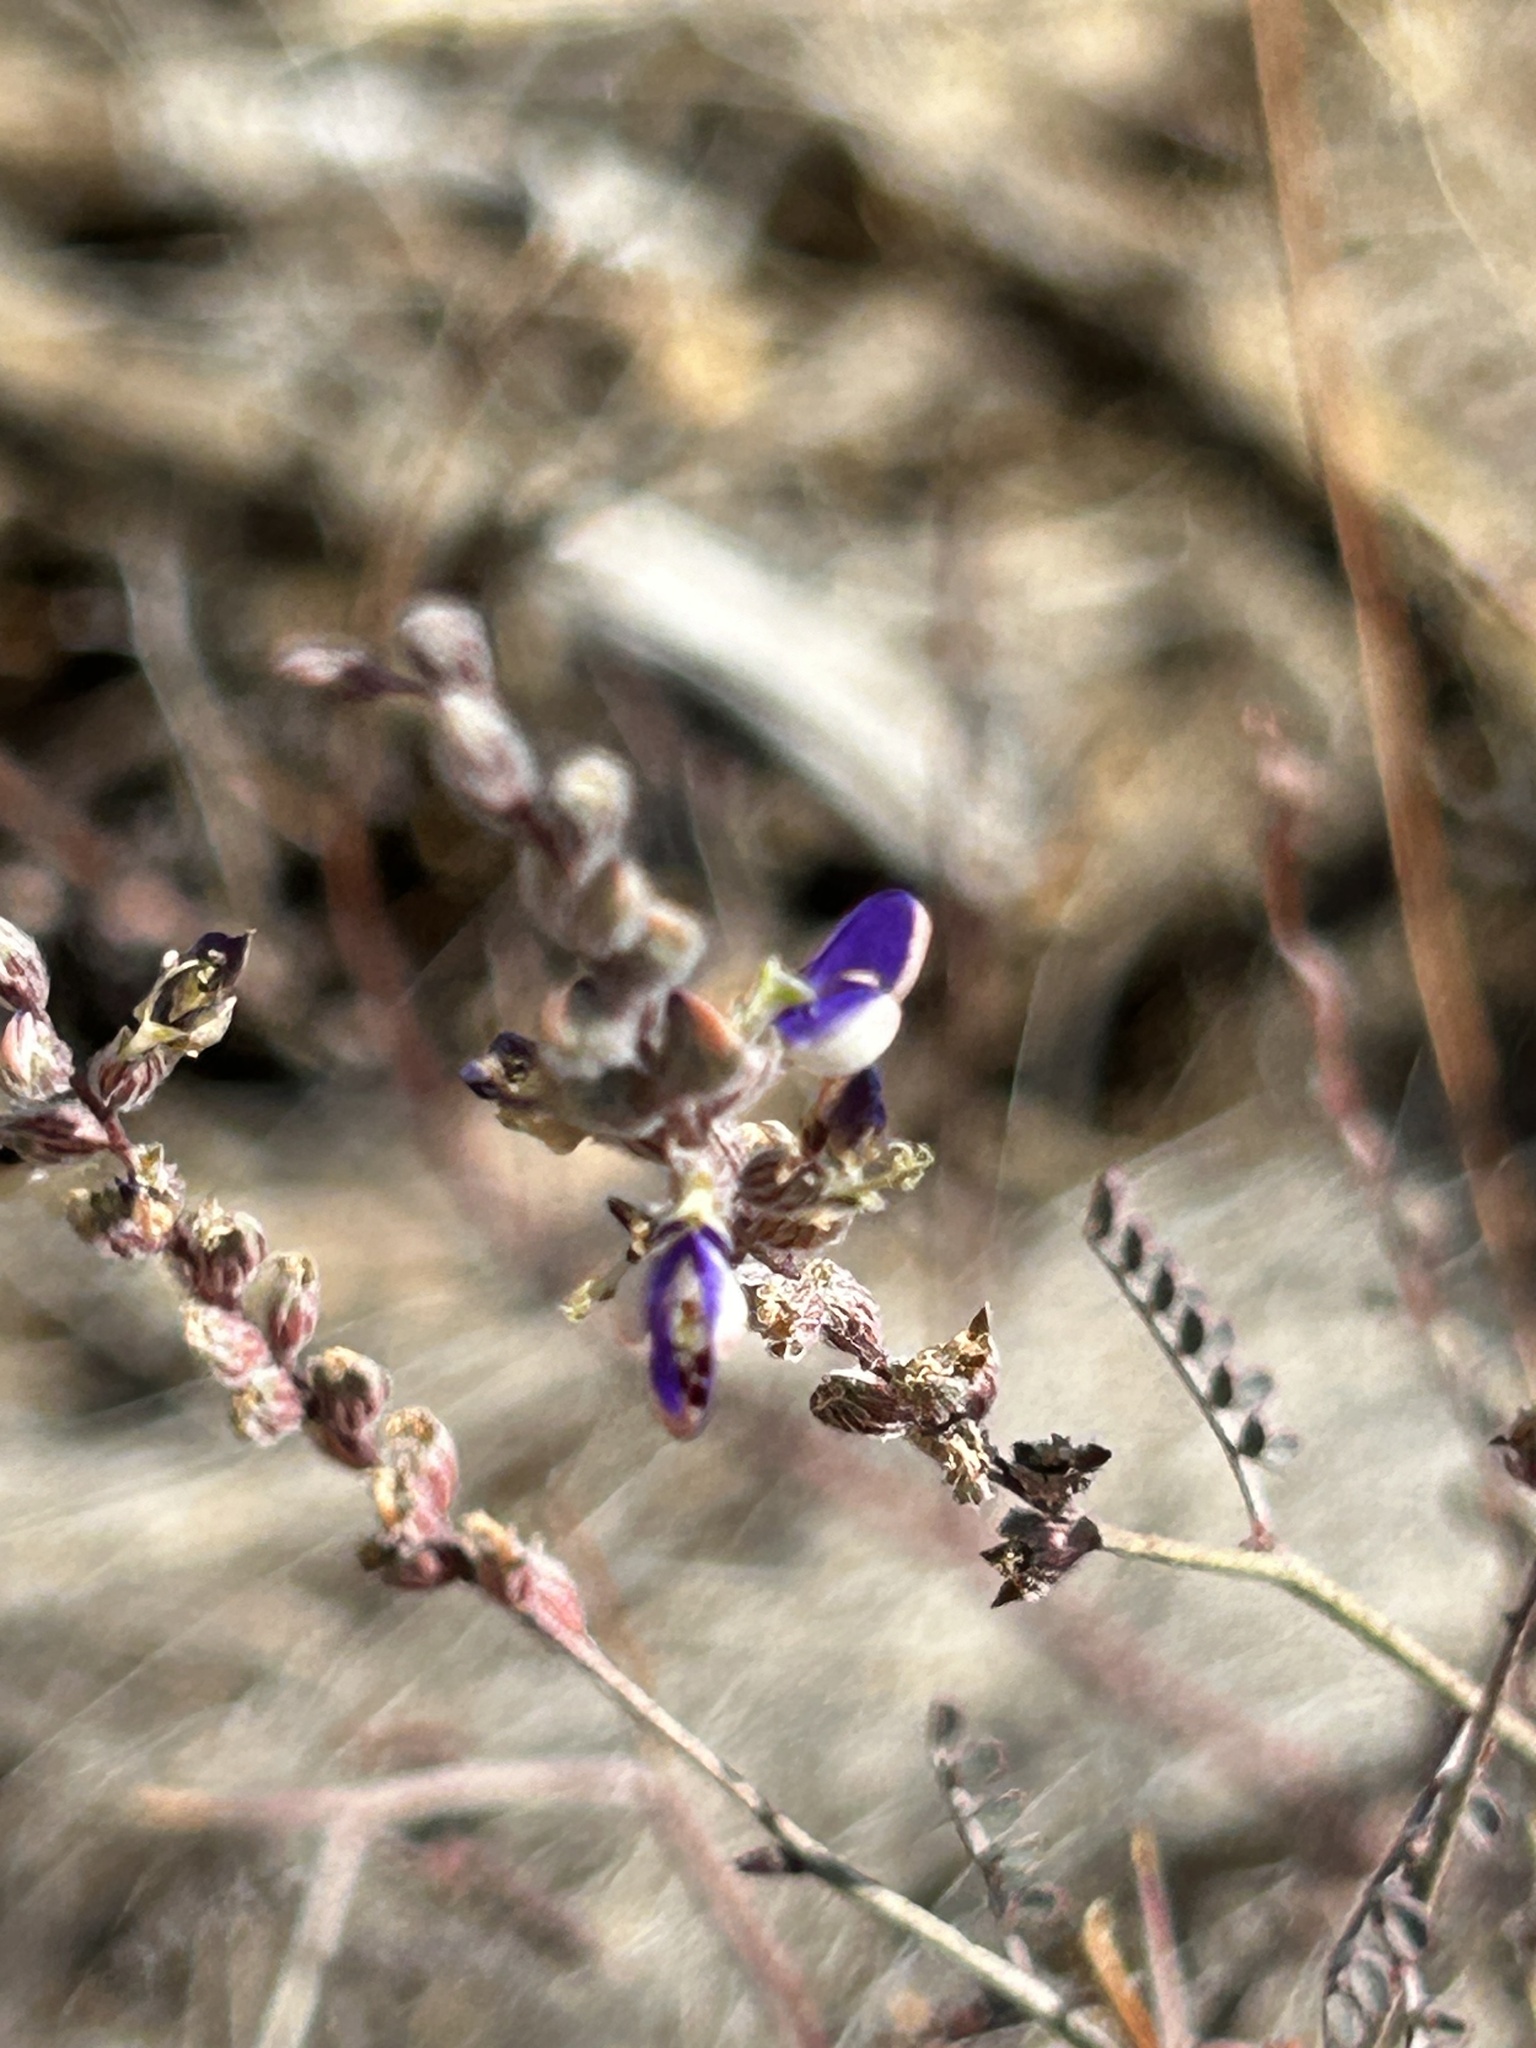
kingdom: Plantae
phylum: Tracheophyta
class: Magnoliopsida
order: Fabales
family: Fabaceae
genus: Marina
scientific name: Marina parryi
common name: Parry's marina
